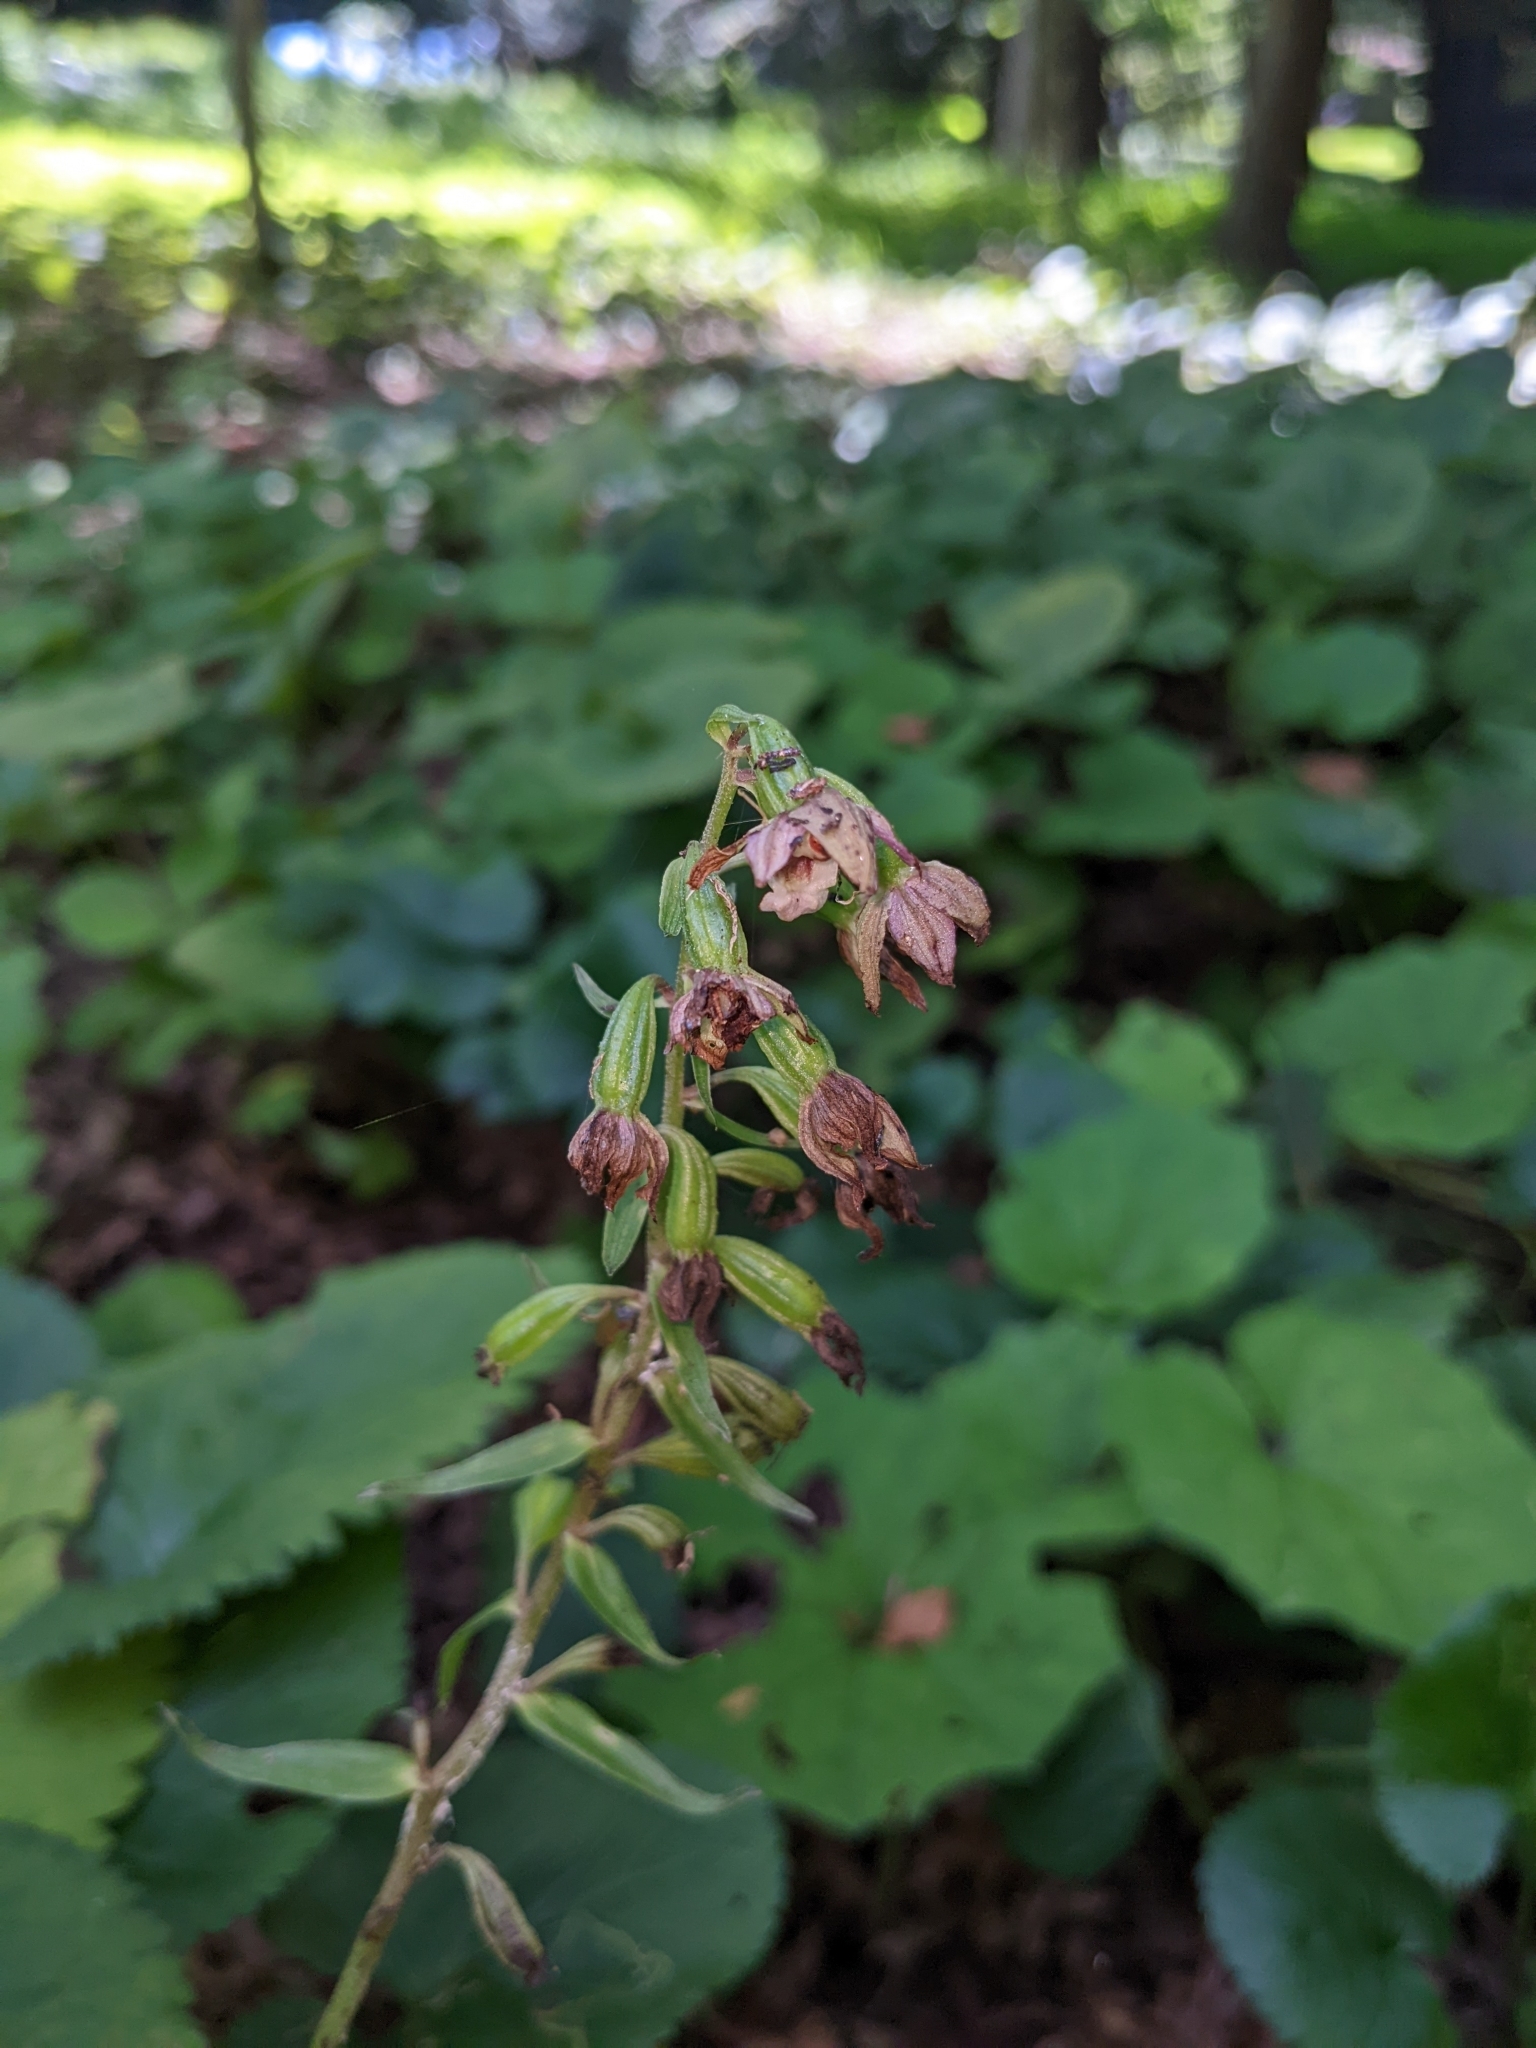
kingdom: Plantae
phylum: Tracheophyta
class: Liliopsida
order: Asparagales
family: Orchidaceae
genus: Epipactis
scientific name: Epipactis helleborine
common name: Broad-leaved helleborine
